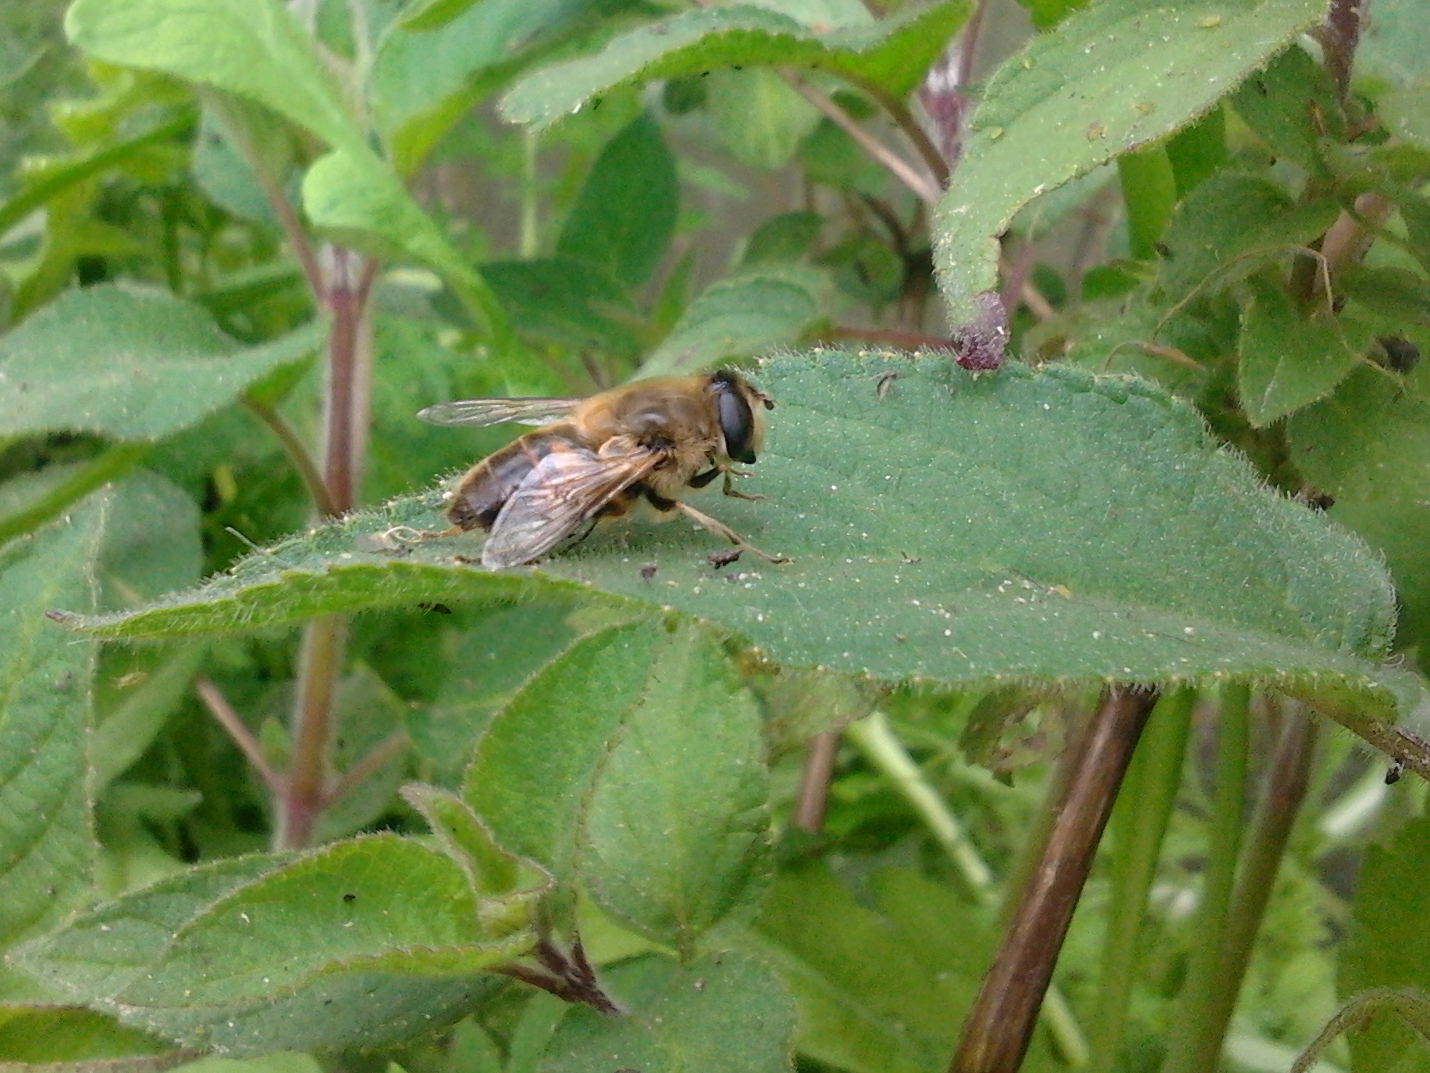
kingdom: Animalia
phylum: Arthropoda
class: Insecta
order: Diptera
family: Syrphidae
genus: Eristalis
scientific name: Eristalis tenax
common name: Drone fly
